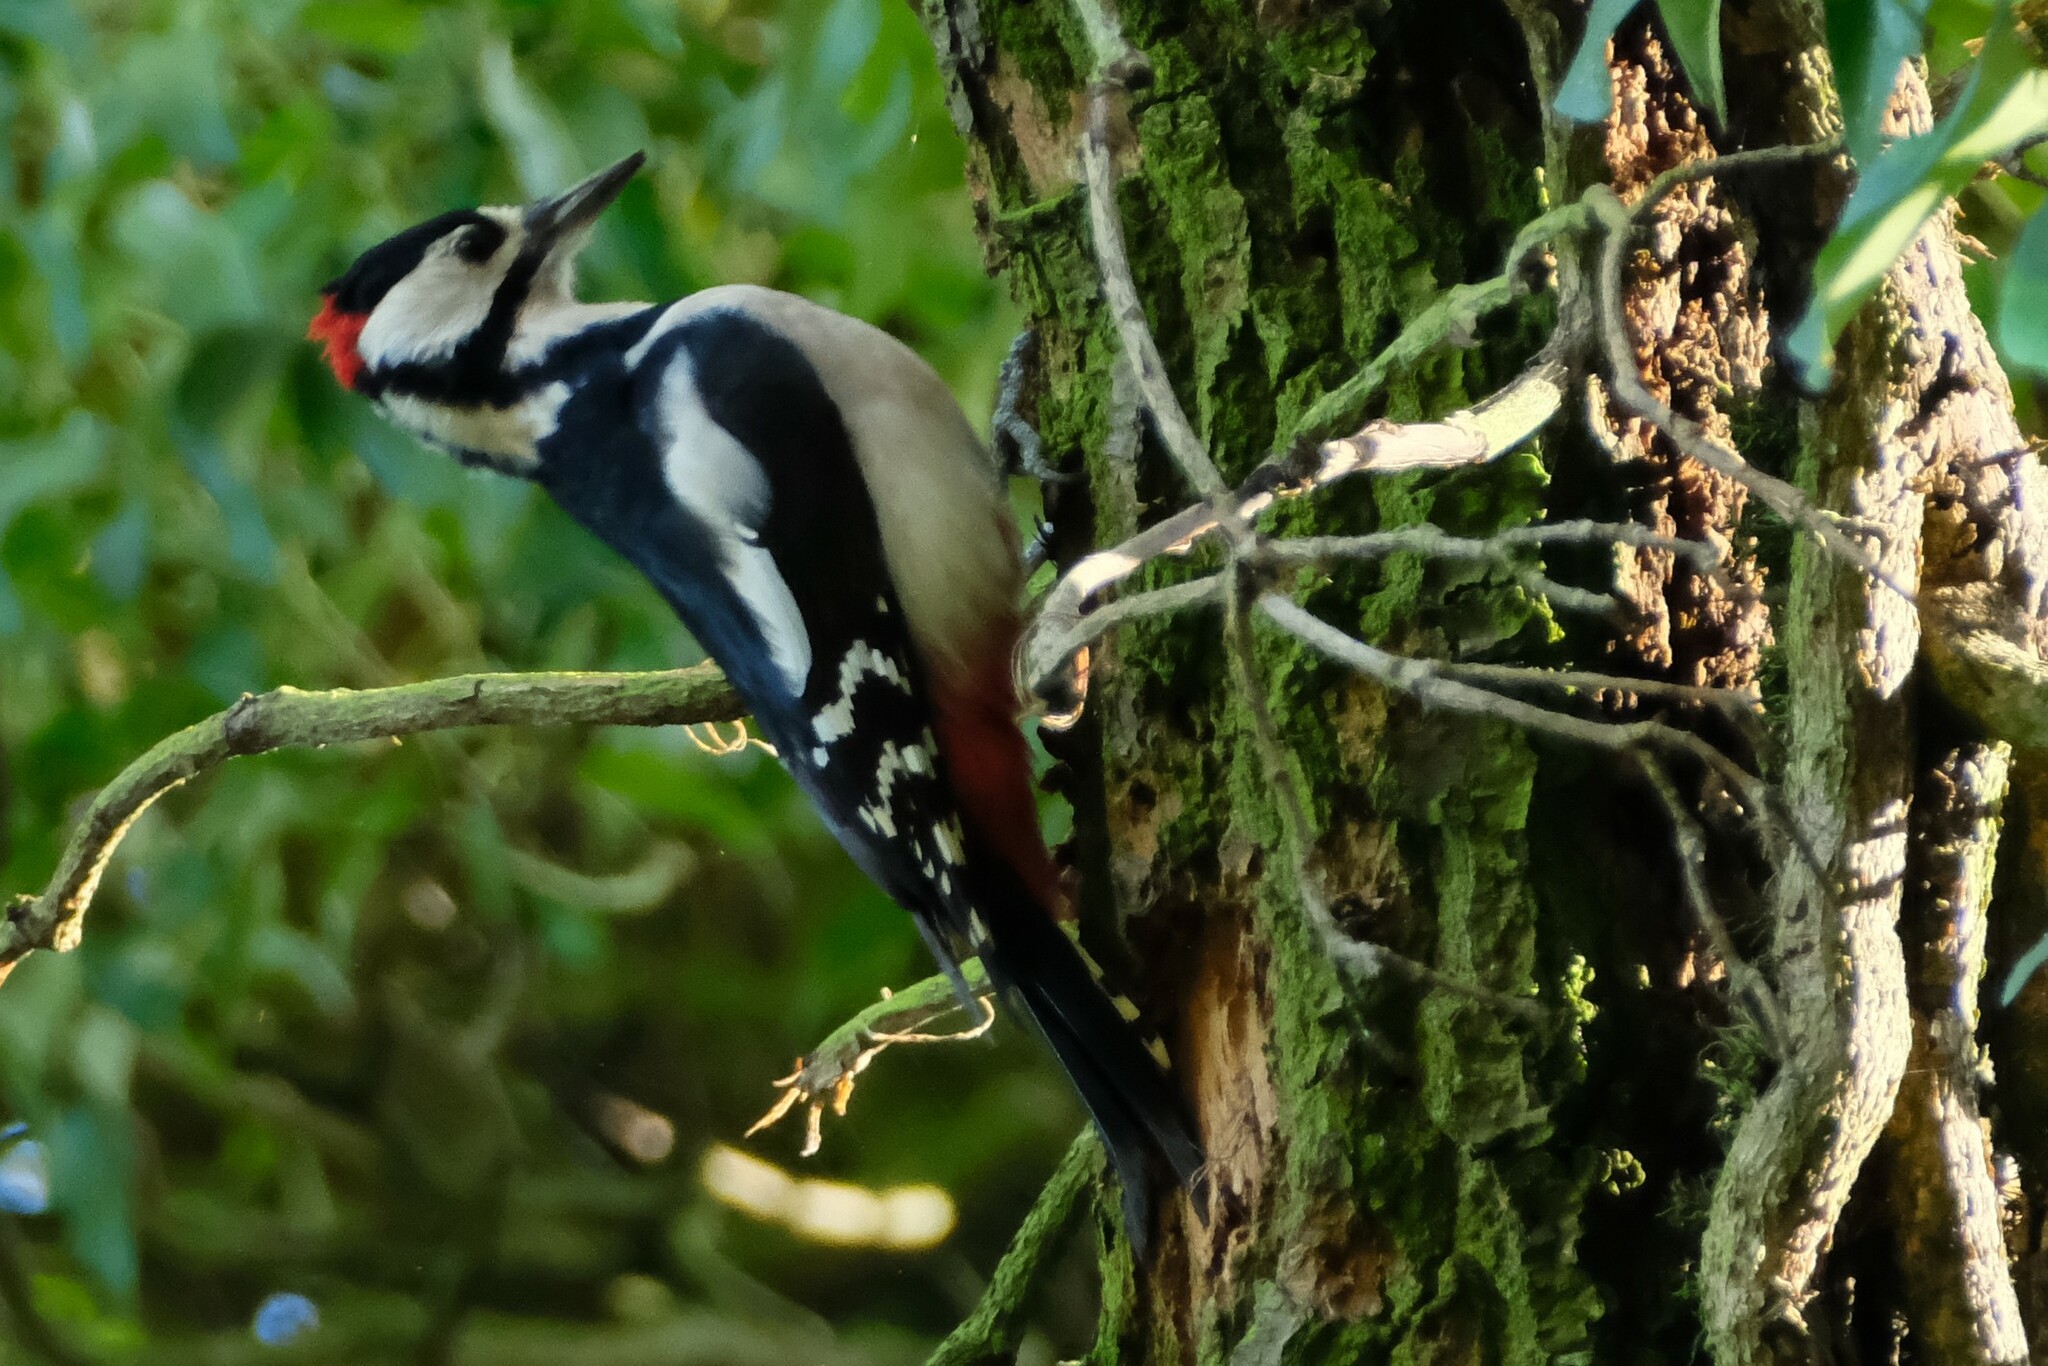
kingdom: Animalia
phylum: Chordata
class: Aves
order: Piciformes
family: Picidae
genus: Dendrocopos
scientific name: Dendrocopos major
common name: Great spotted woodpecker
